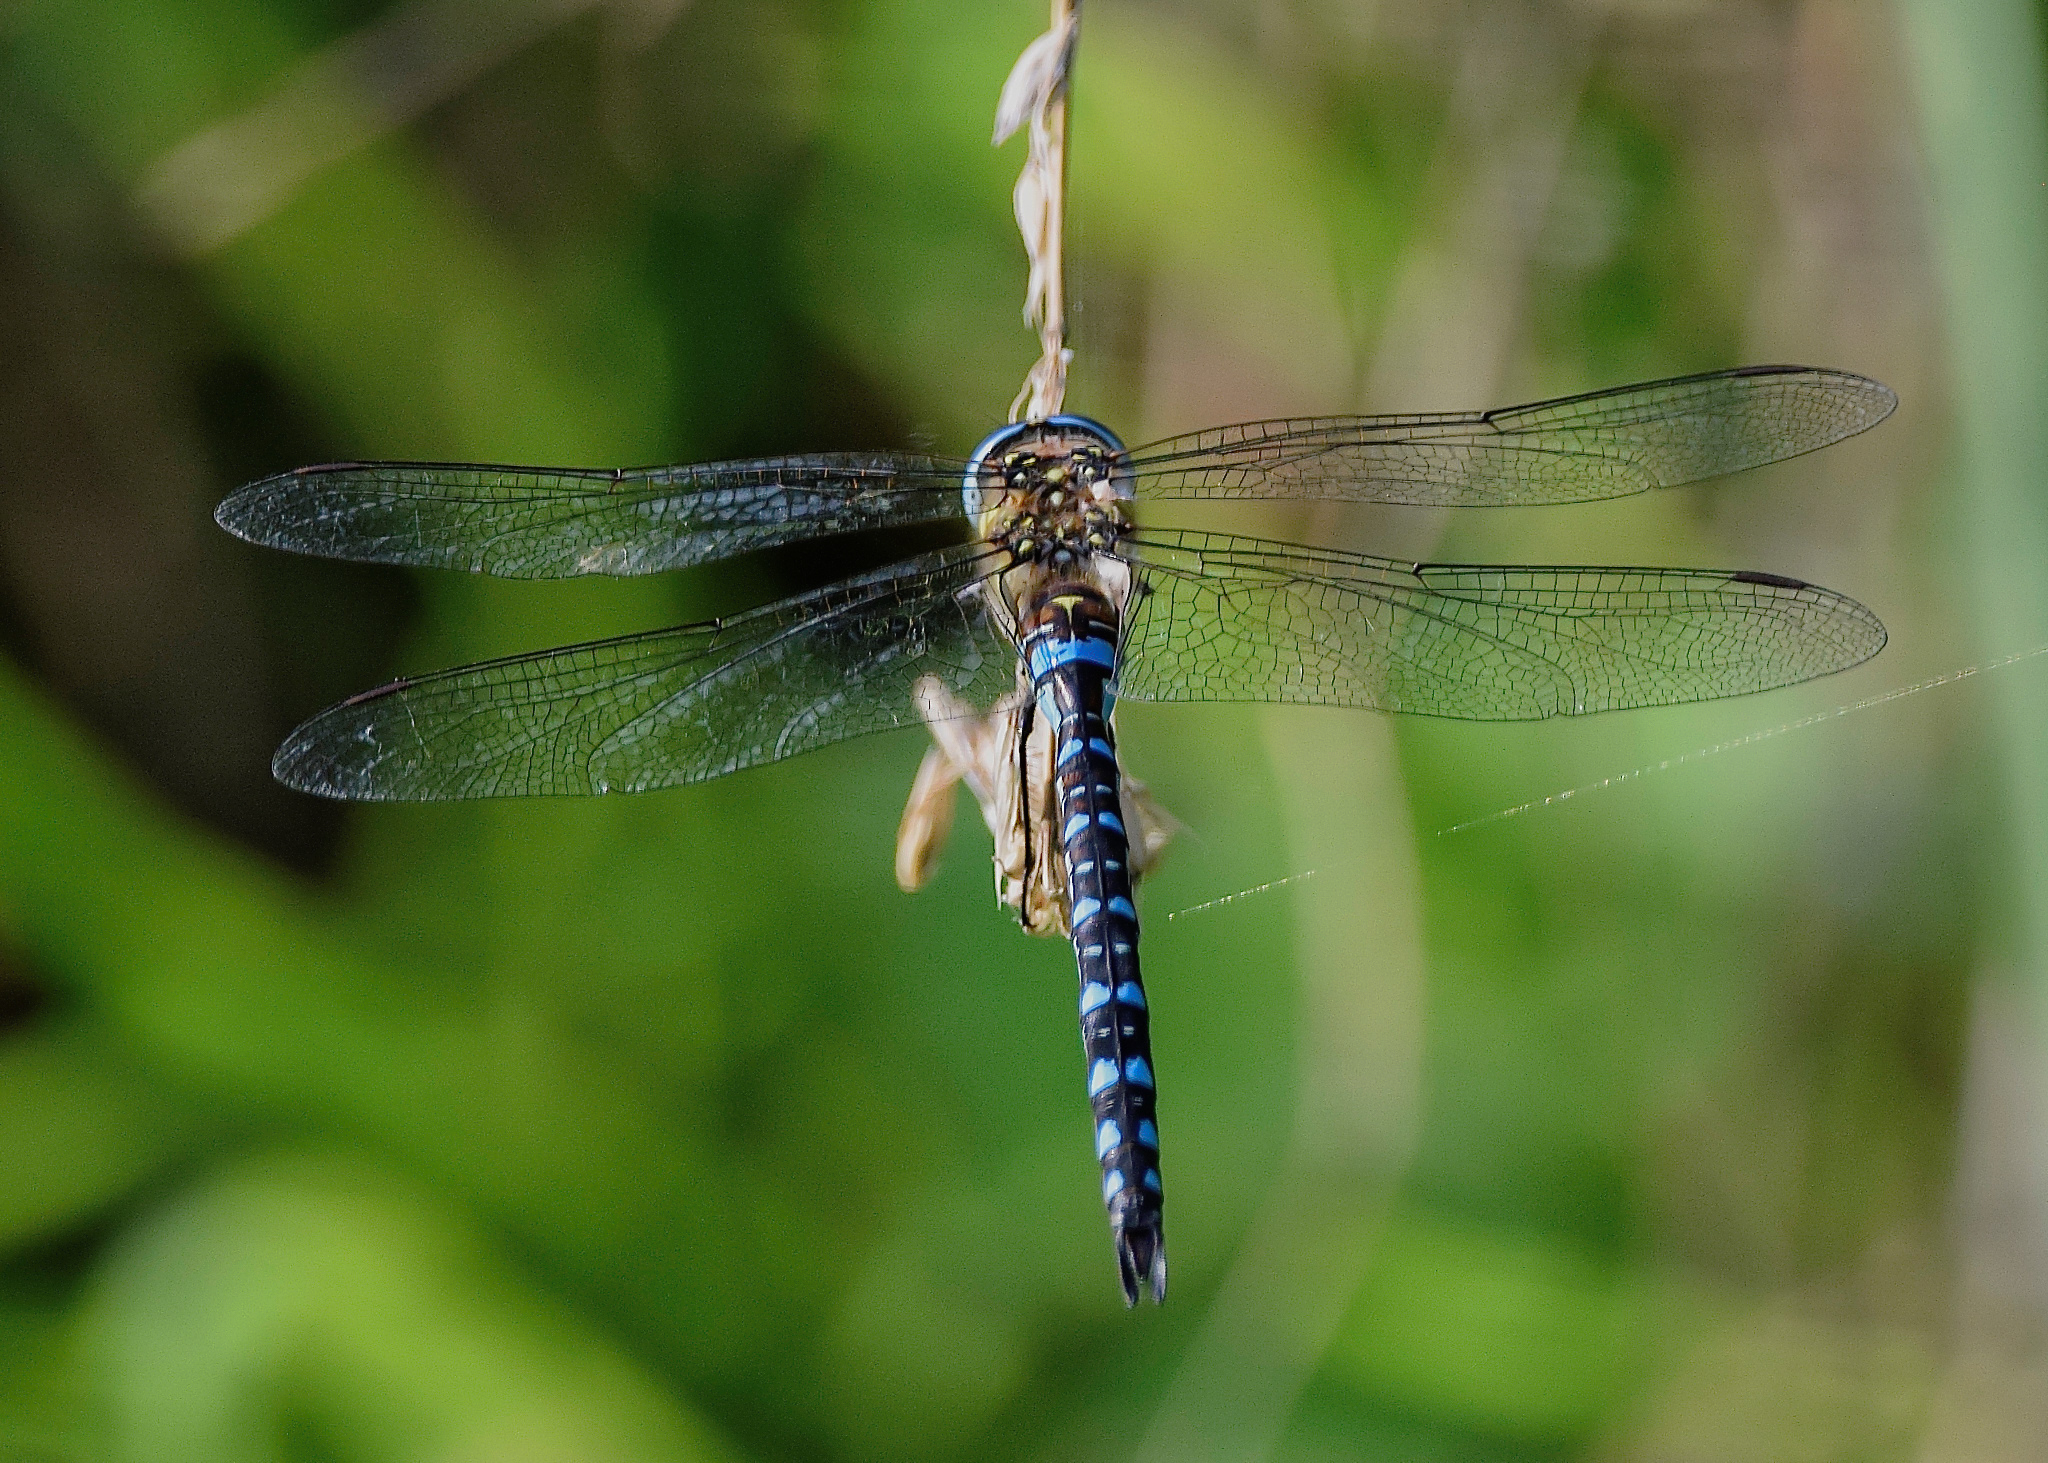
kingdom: Animalia
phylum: Arthropoda
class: Insecta
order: Odonata
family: Aeshnidae
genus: Aeshna
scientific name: Aeshna mixta
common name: Migrant hawker
